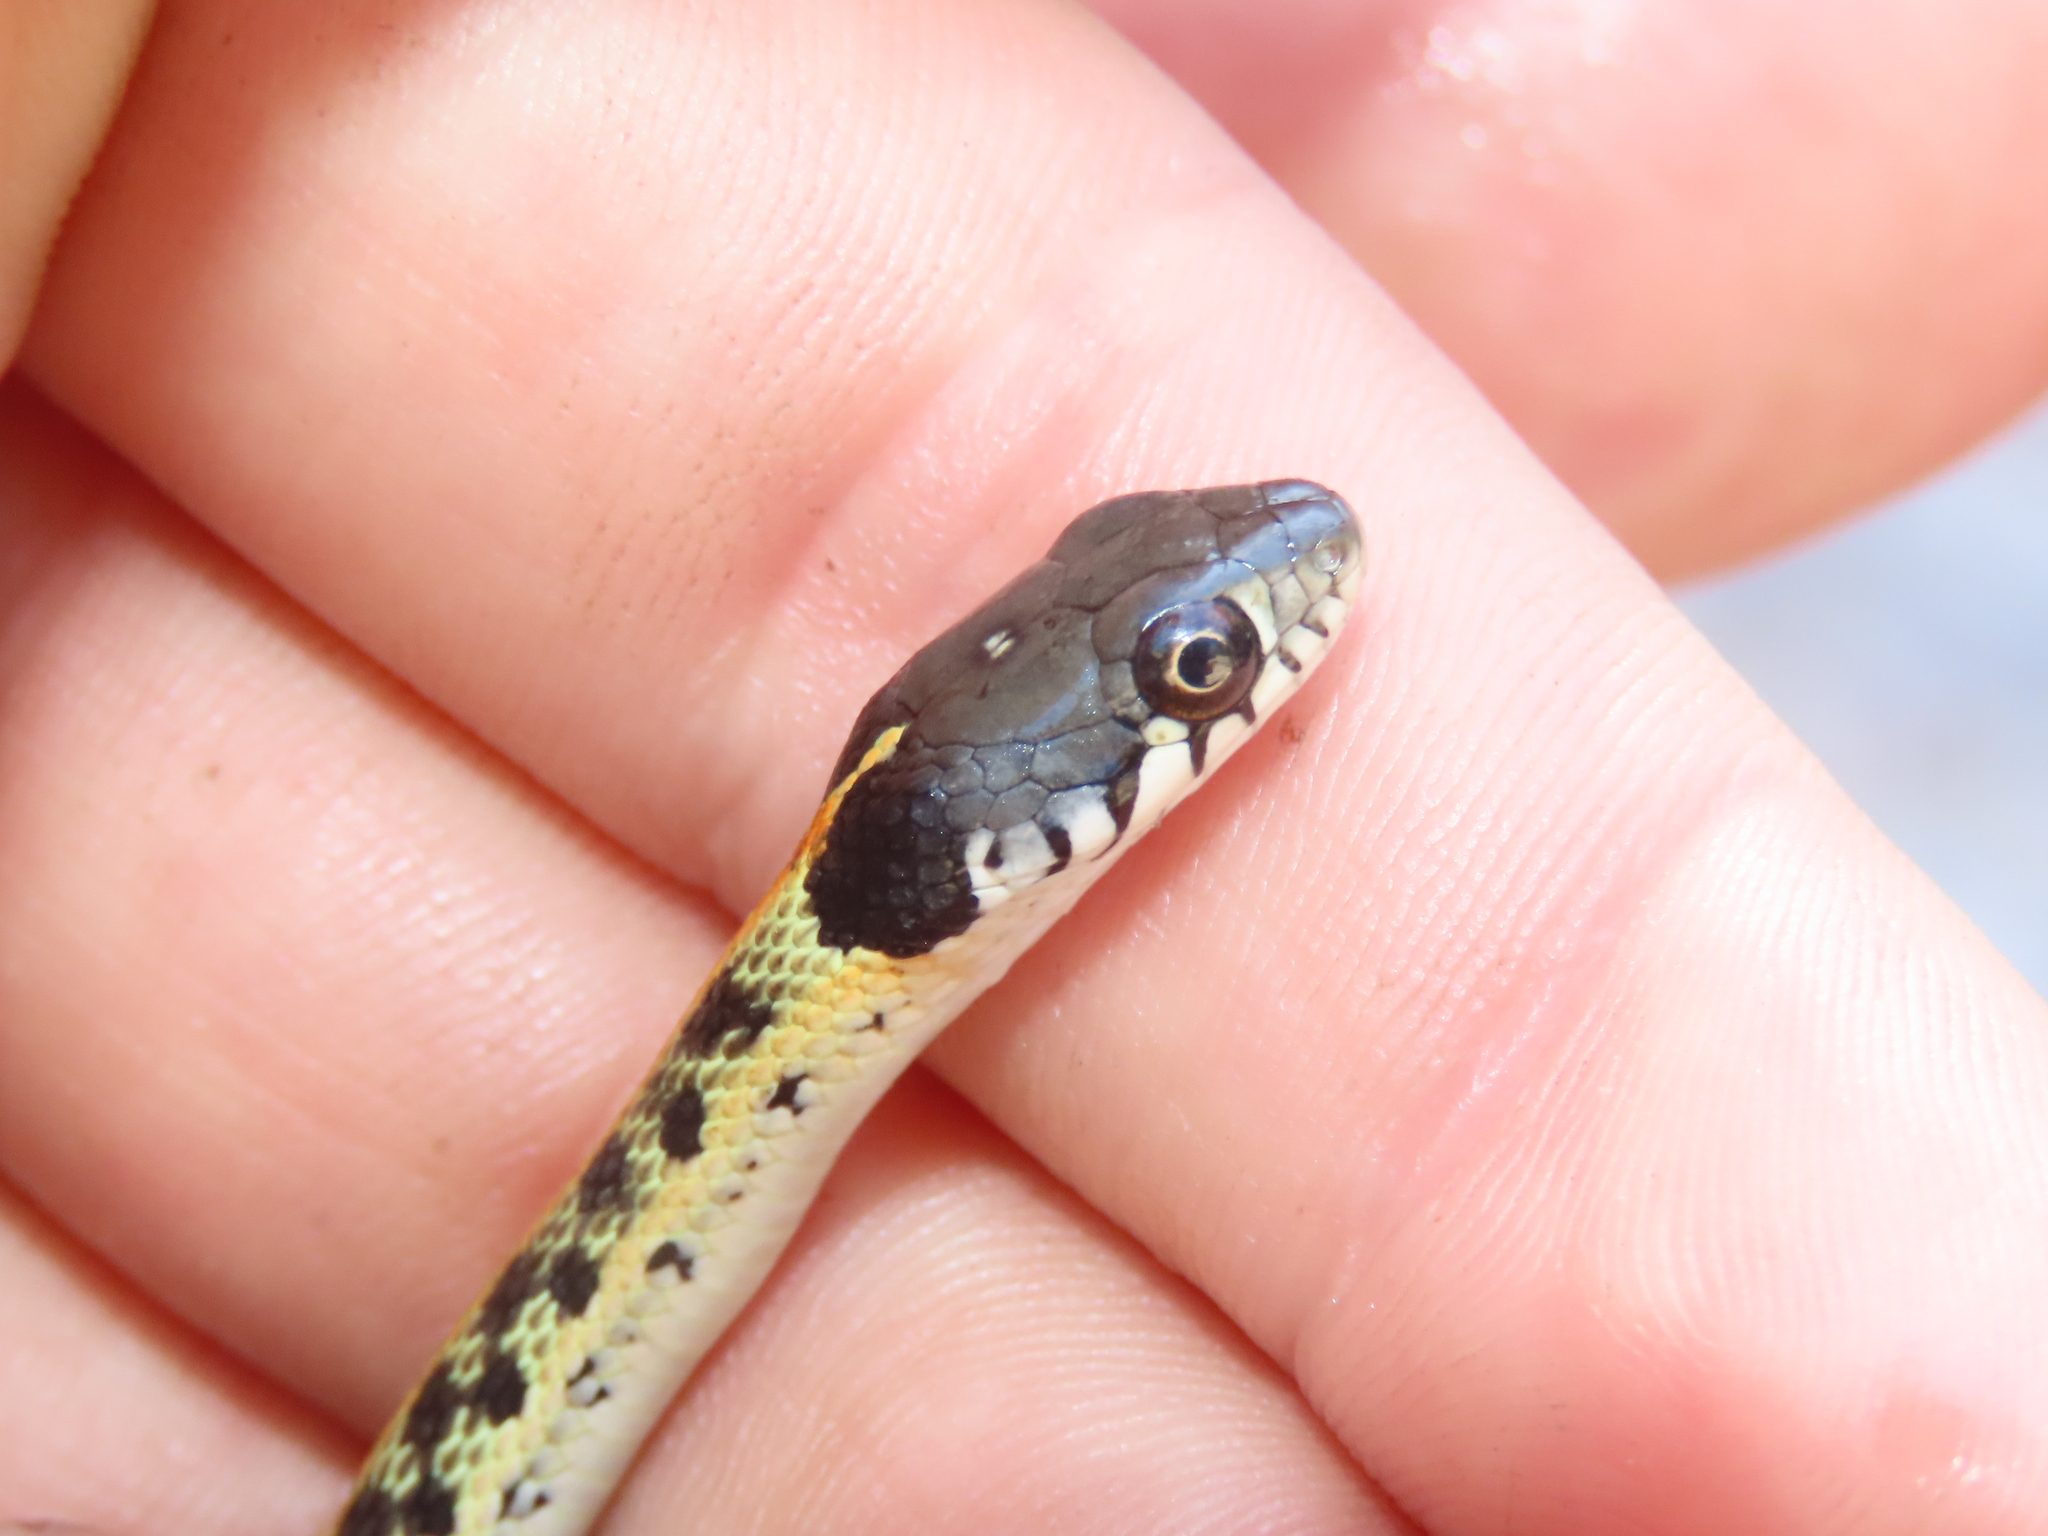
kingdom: Animalia
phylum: Chordata
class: Squamata
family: Colubridae
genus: Thamnophis
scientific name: Thamnophis cyrtopsis
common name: Black-necked gartersnake
